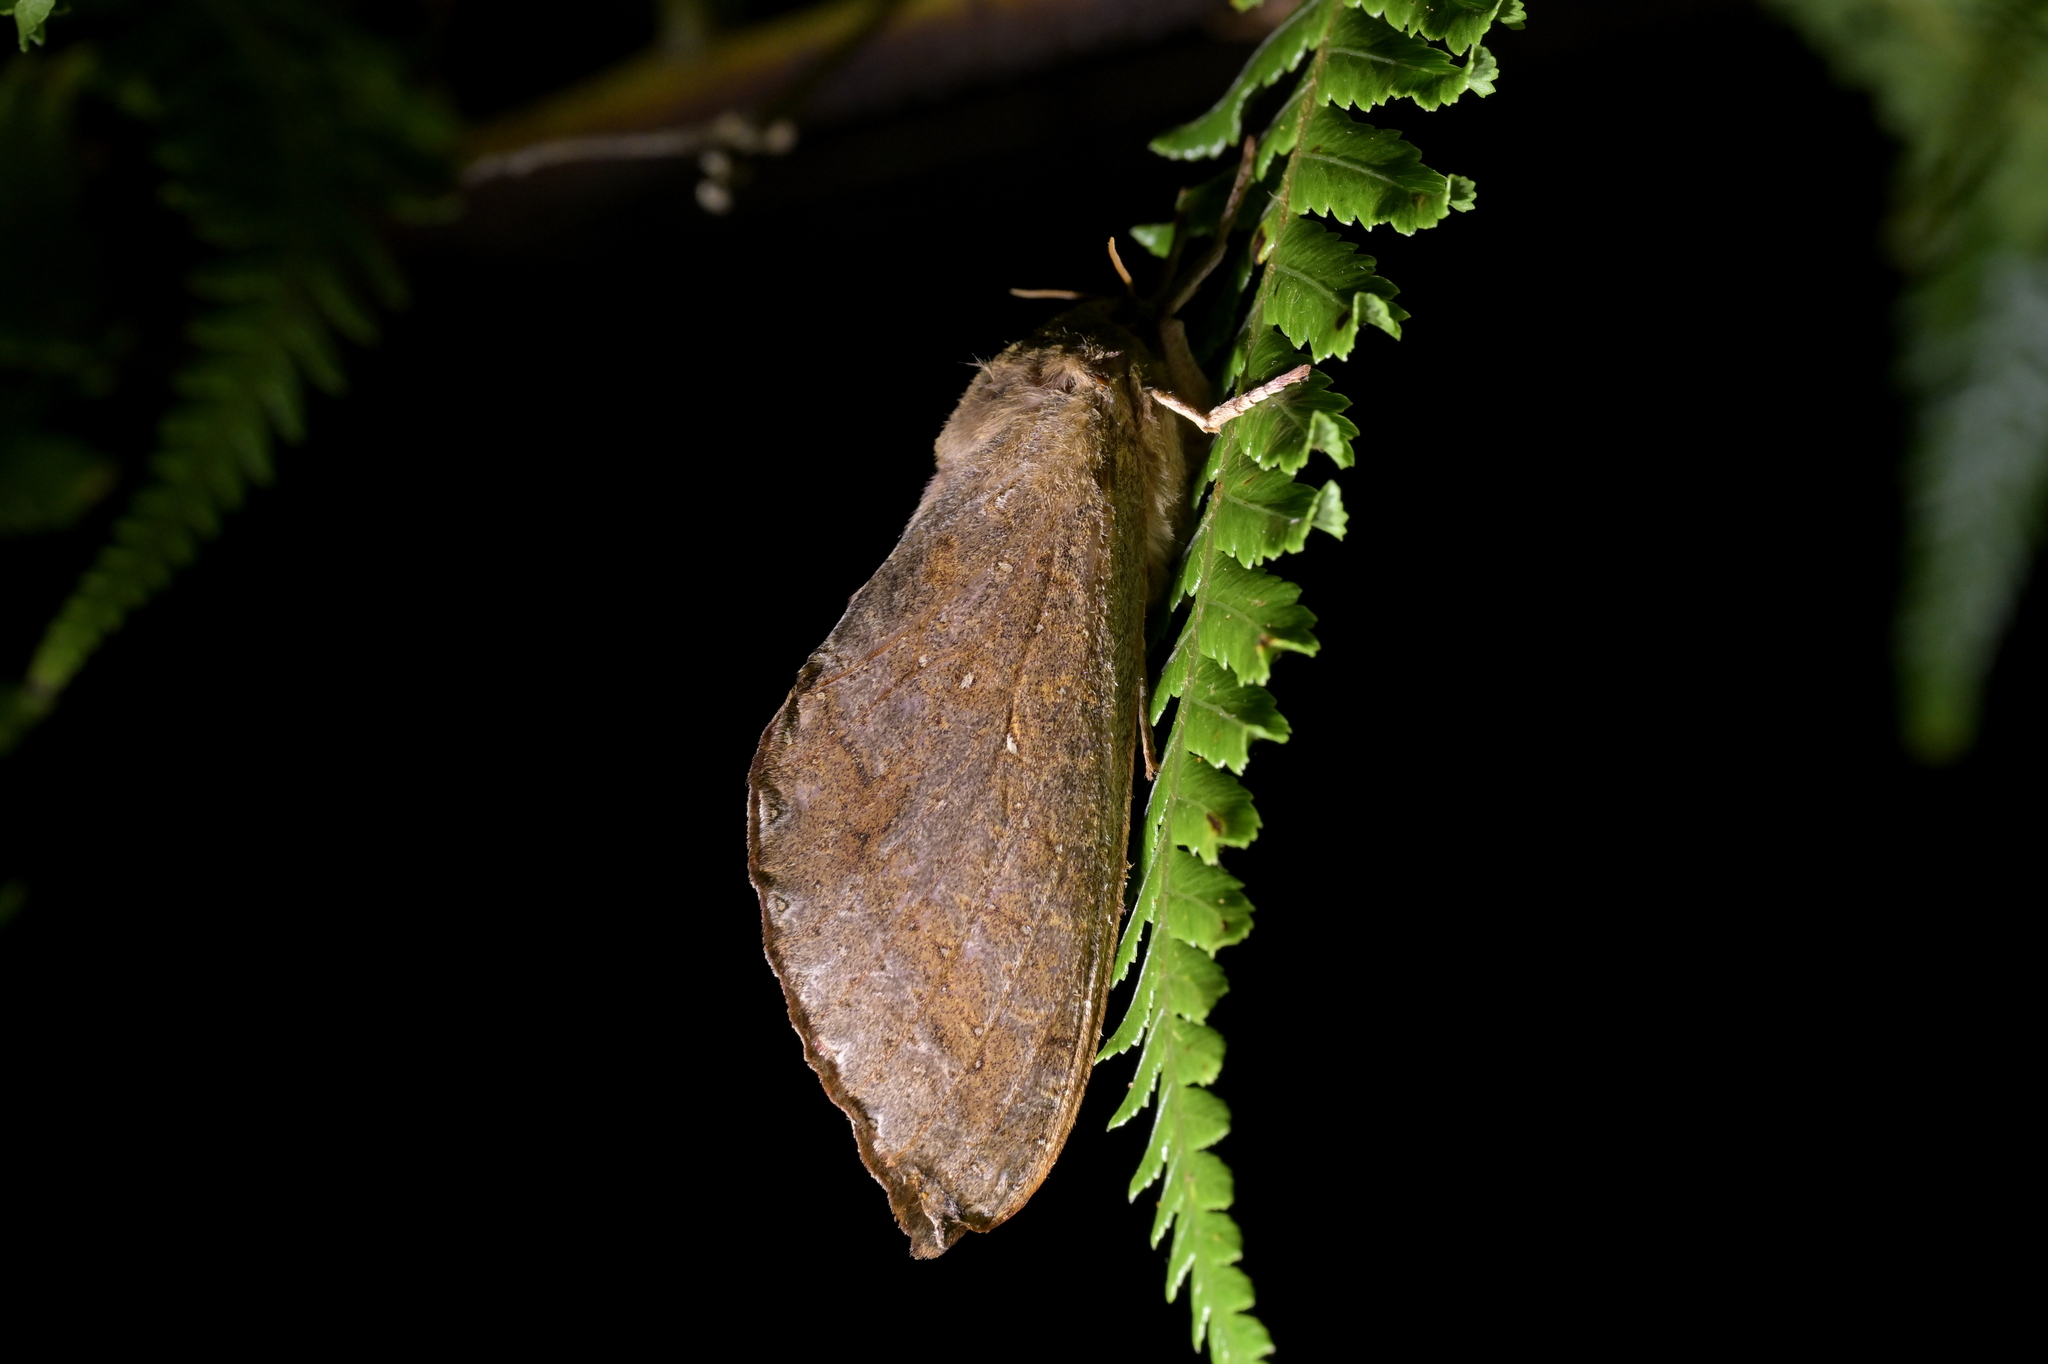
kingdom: Animalia
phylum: Arthropoda
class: Insecta
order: Lepidoptera
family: Hepialidae
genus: Dumbletonius
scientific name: Dumbletonius unimaculata
